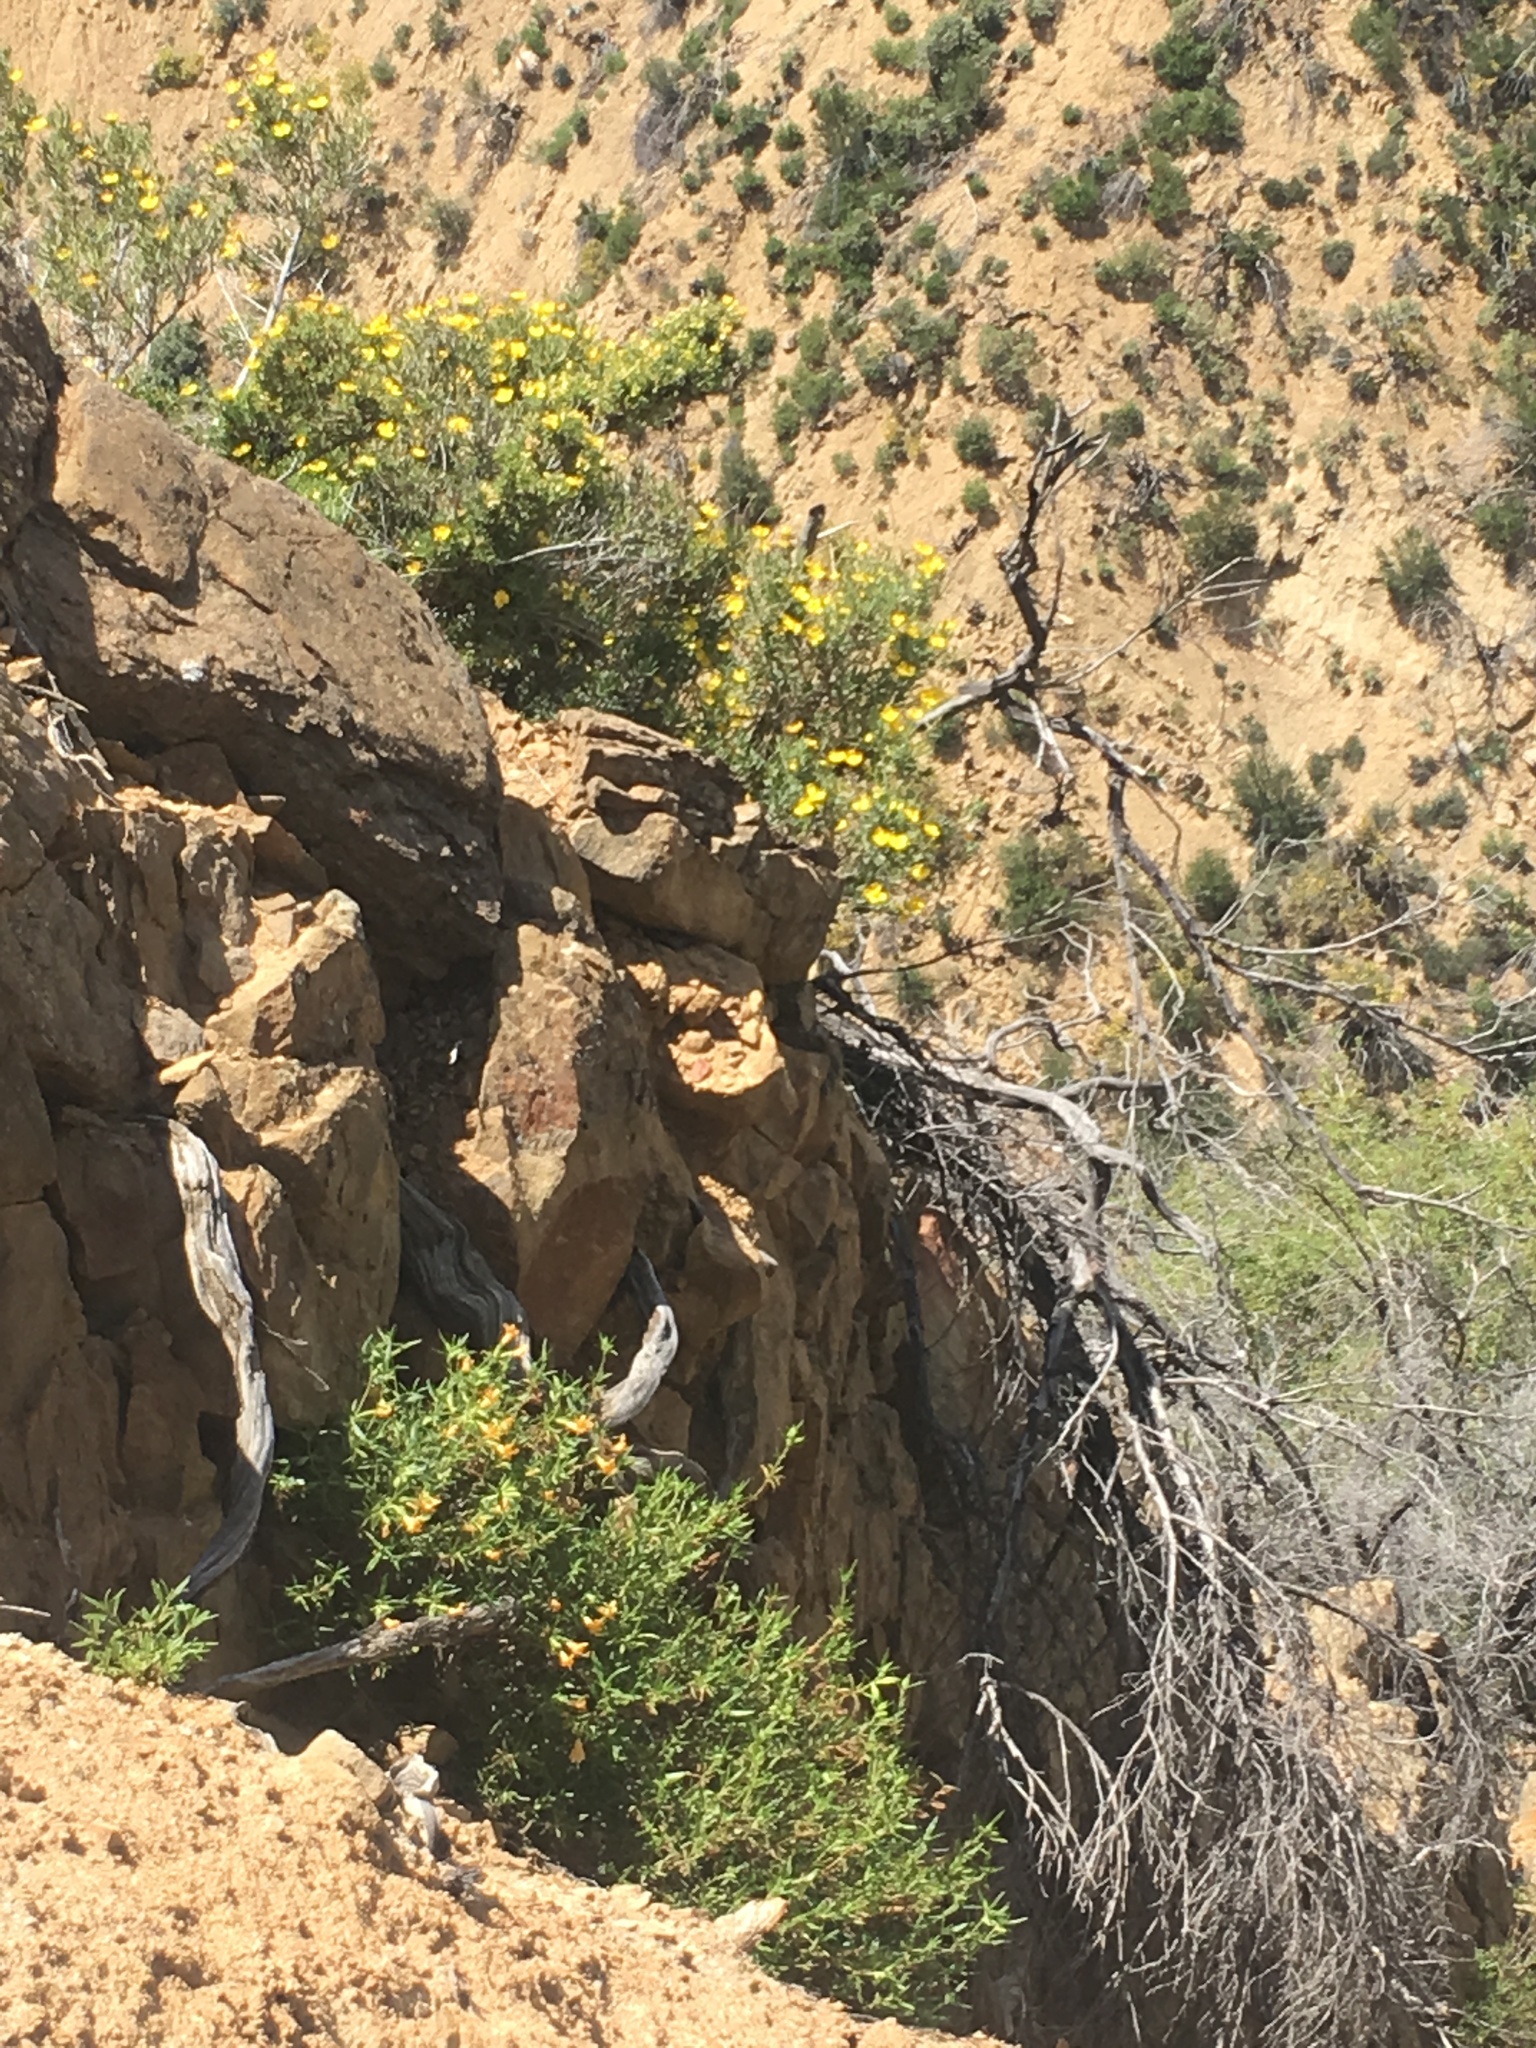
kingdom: Plantae
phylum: Tracheophyta
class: Magnoliopsida
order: Lamiales
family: Phrymaceae
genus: Diplacus
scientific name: Diplacus longiflorus
